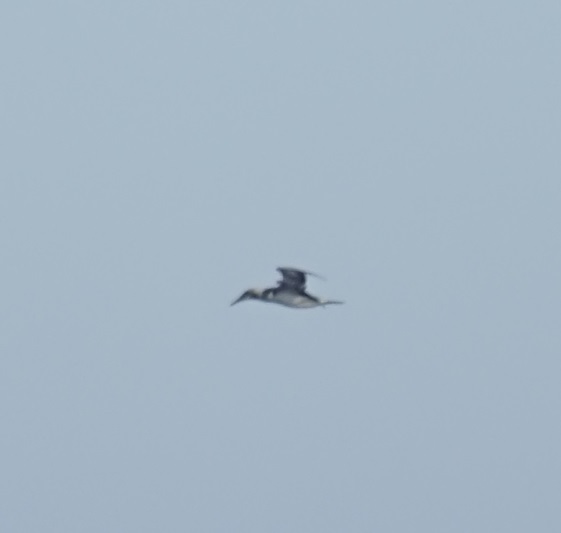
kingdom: Animalia
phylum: Chordata
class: Aves
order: Suliformes
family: Sulidae
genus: Morus
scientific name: Morus serrator
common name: Australasian gannet
